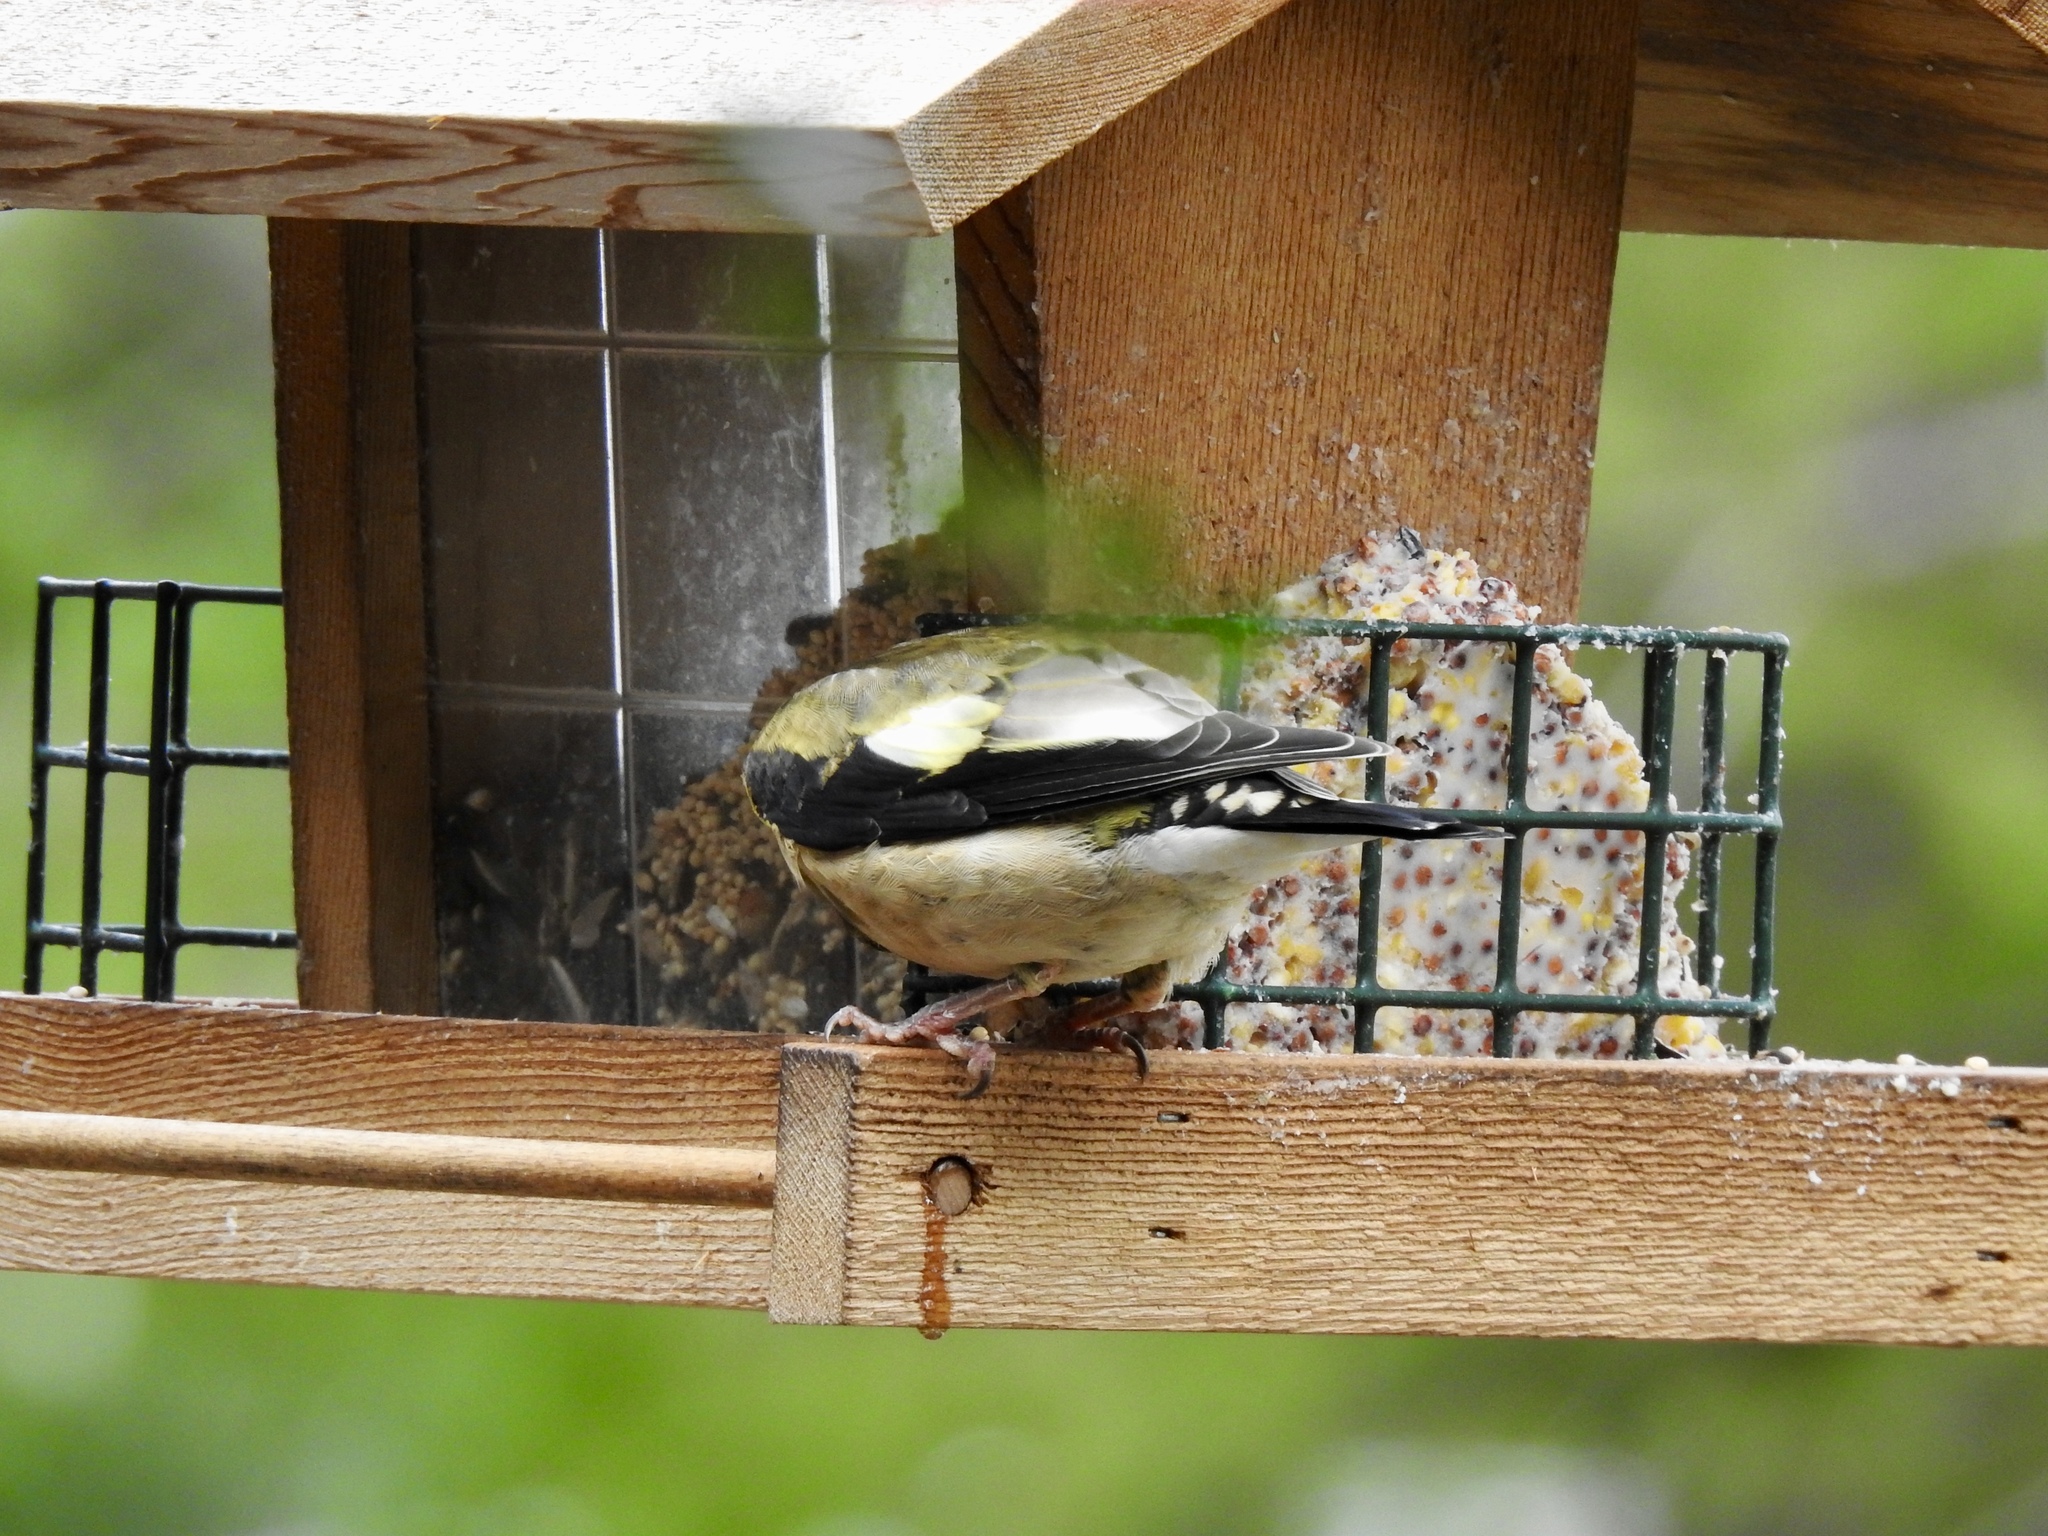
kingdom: Animalia
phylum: Chordata
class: Aves
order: Passeriformes
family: Fringillidae
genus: Hesperiphona
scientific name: Hesperiphona vespertina
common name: Evening grosbeak
